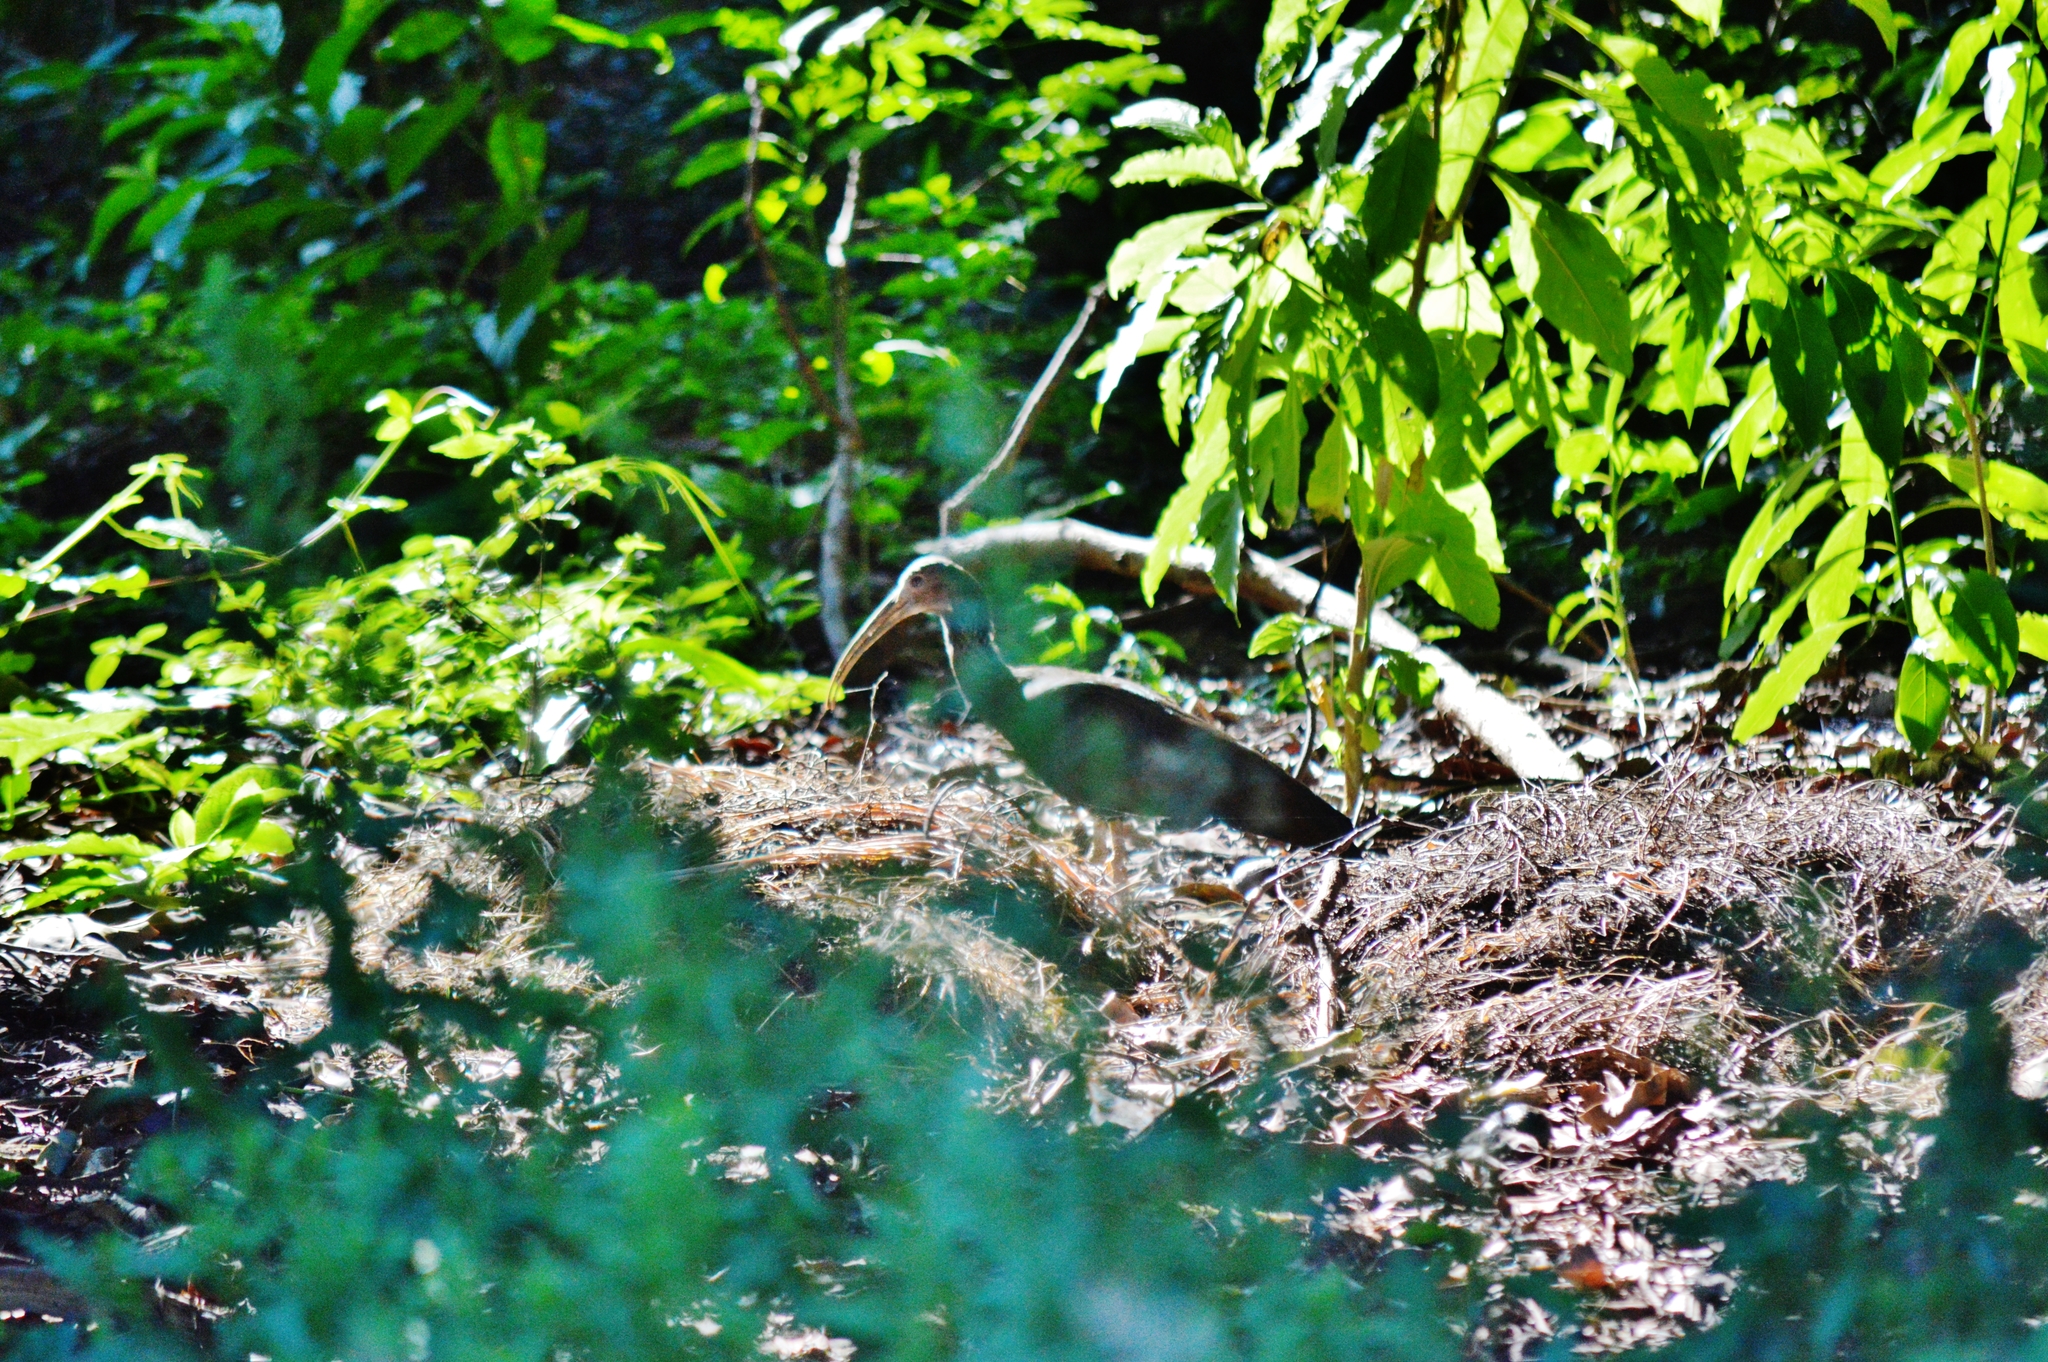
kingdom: Animalia
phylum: Chordata
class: Aves
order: Pelecaniformes
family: Threskiornithidae
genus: Mesembrinibis
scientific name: Mesembrinibis cayennensis
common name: Green ibis
